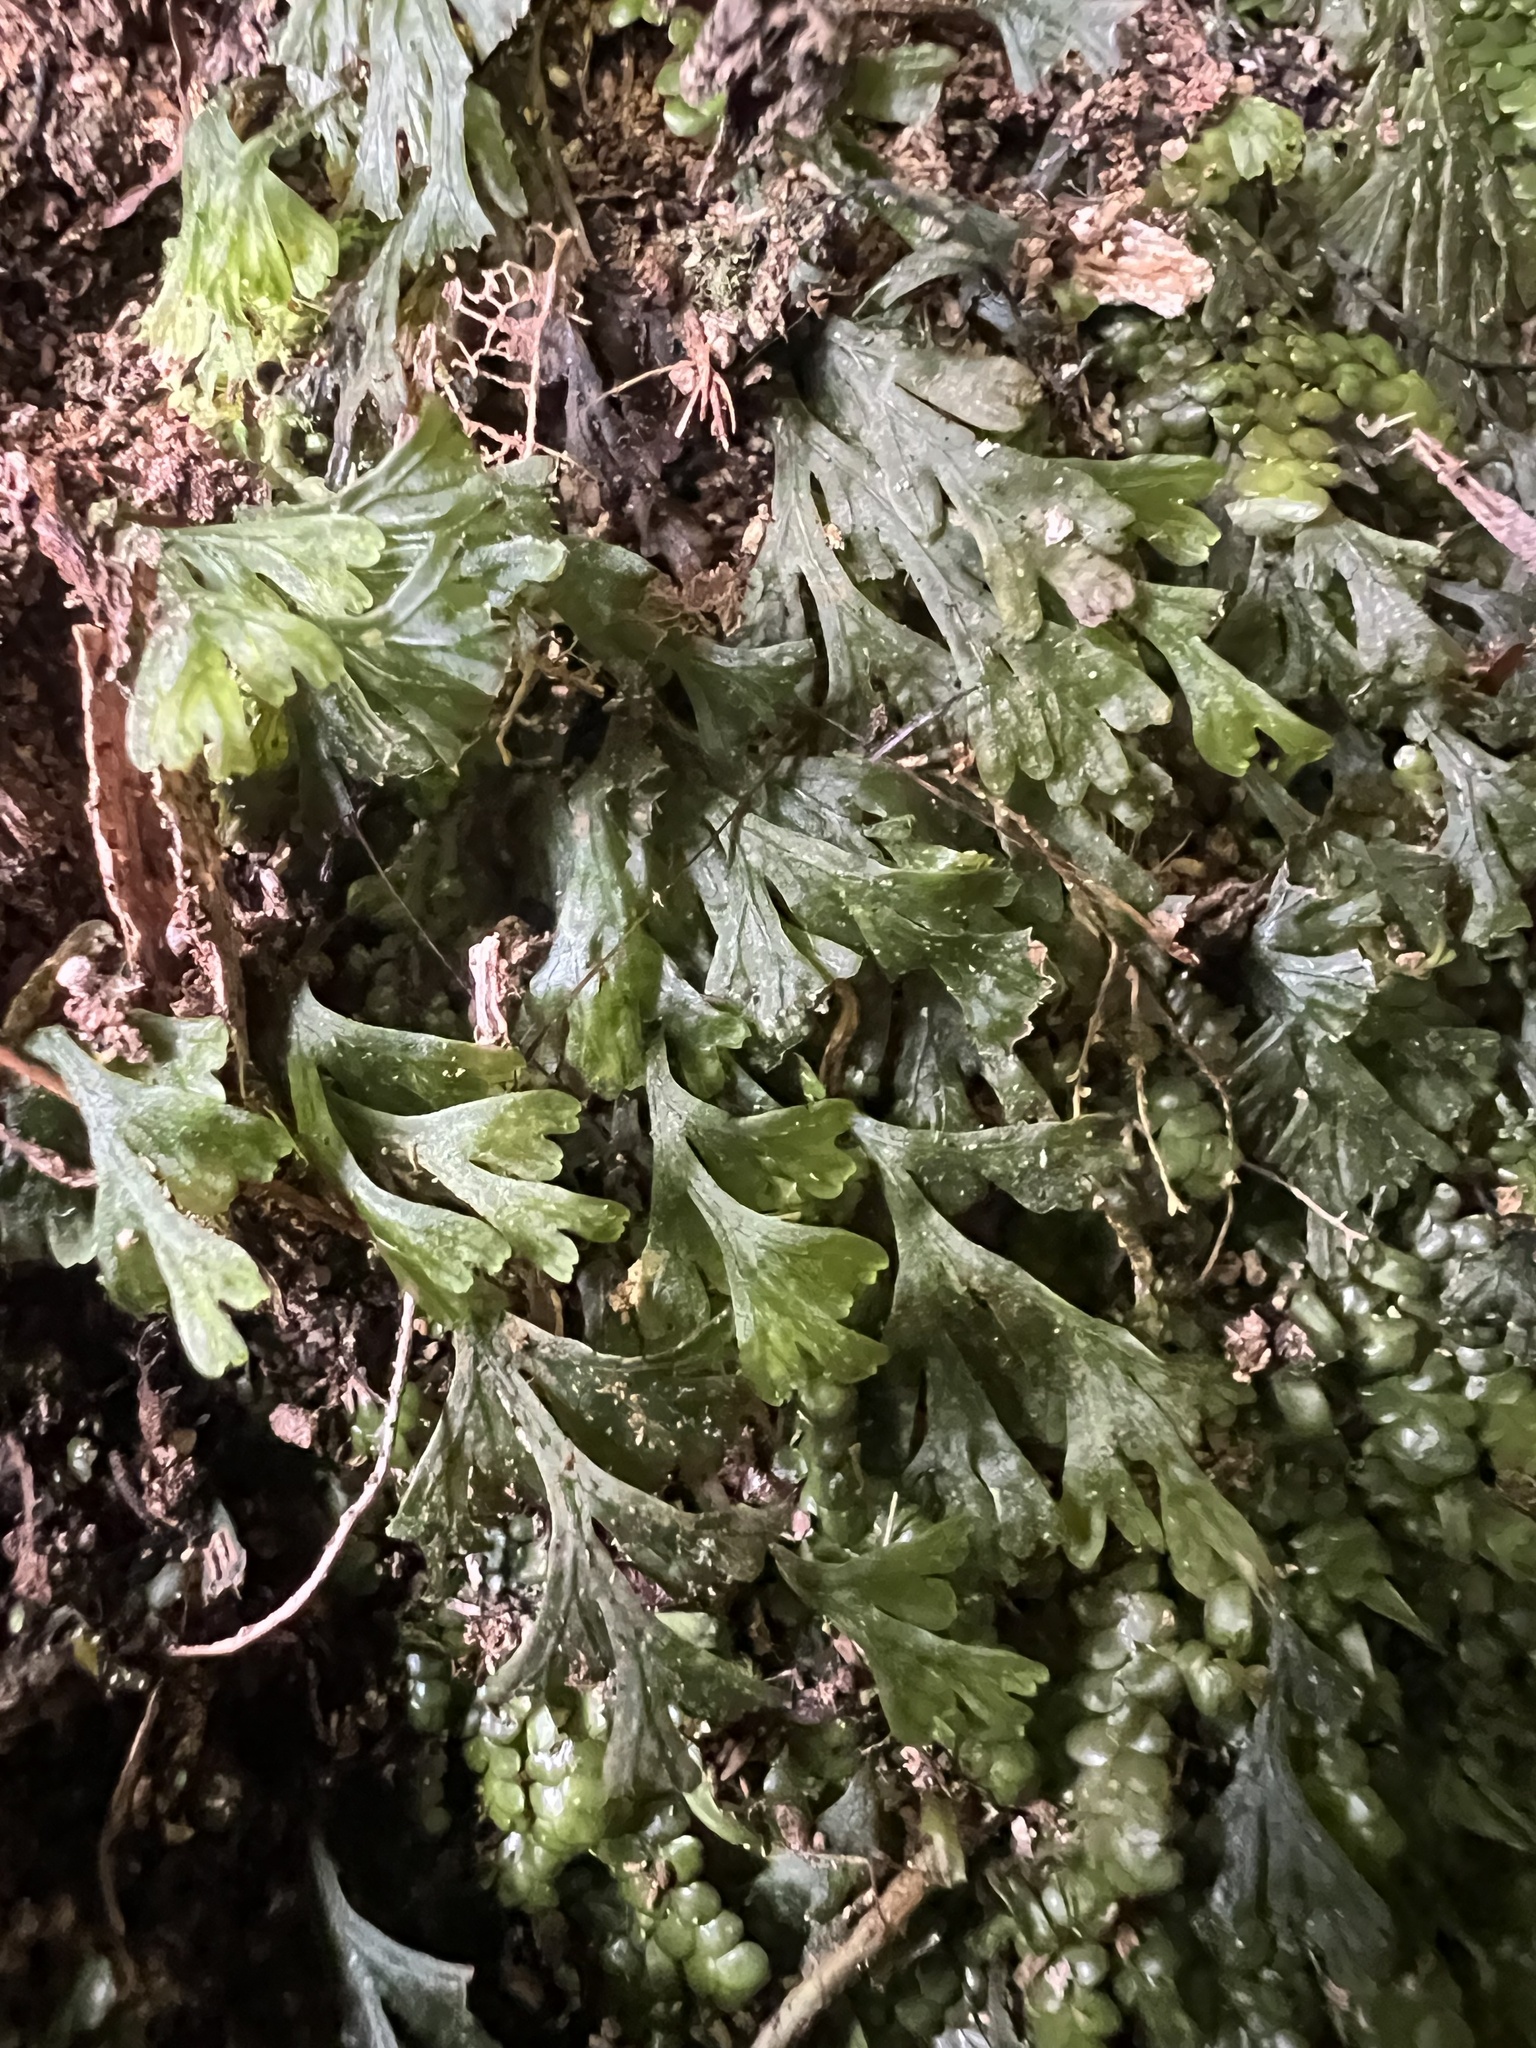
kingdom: Plantae
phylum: Tracheophyta
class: Polypodiopsida
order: Hymenophyllales
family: Hymenophyllaceae
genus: Polyphlebium
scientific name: Polyphlebium endlicherianum
